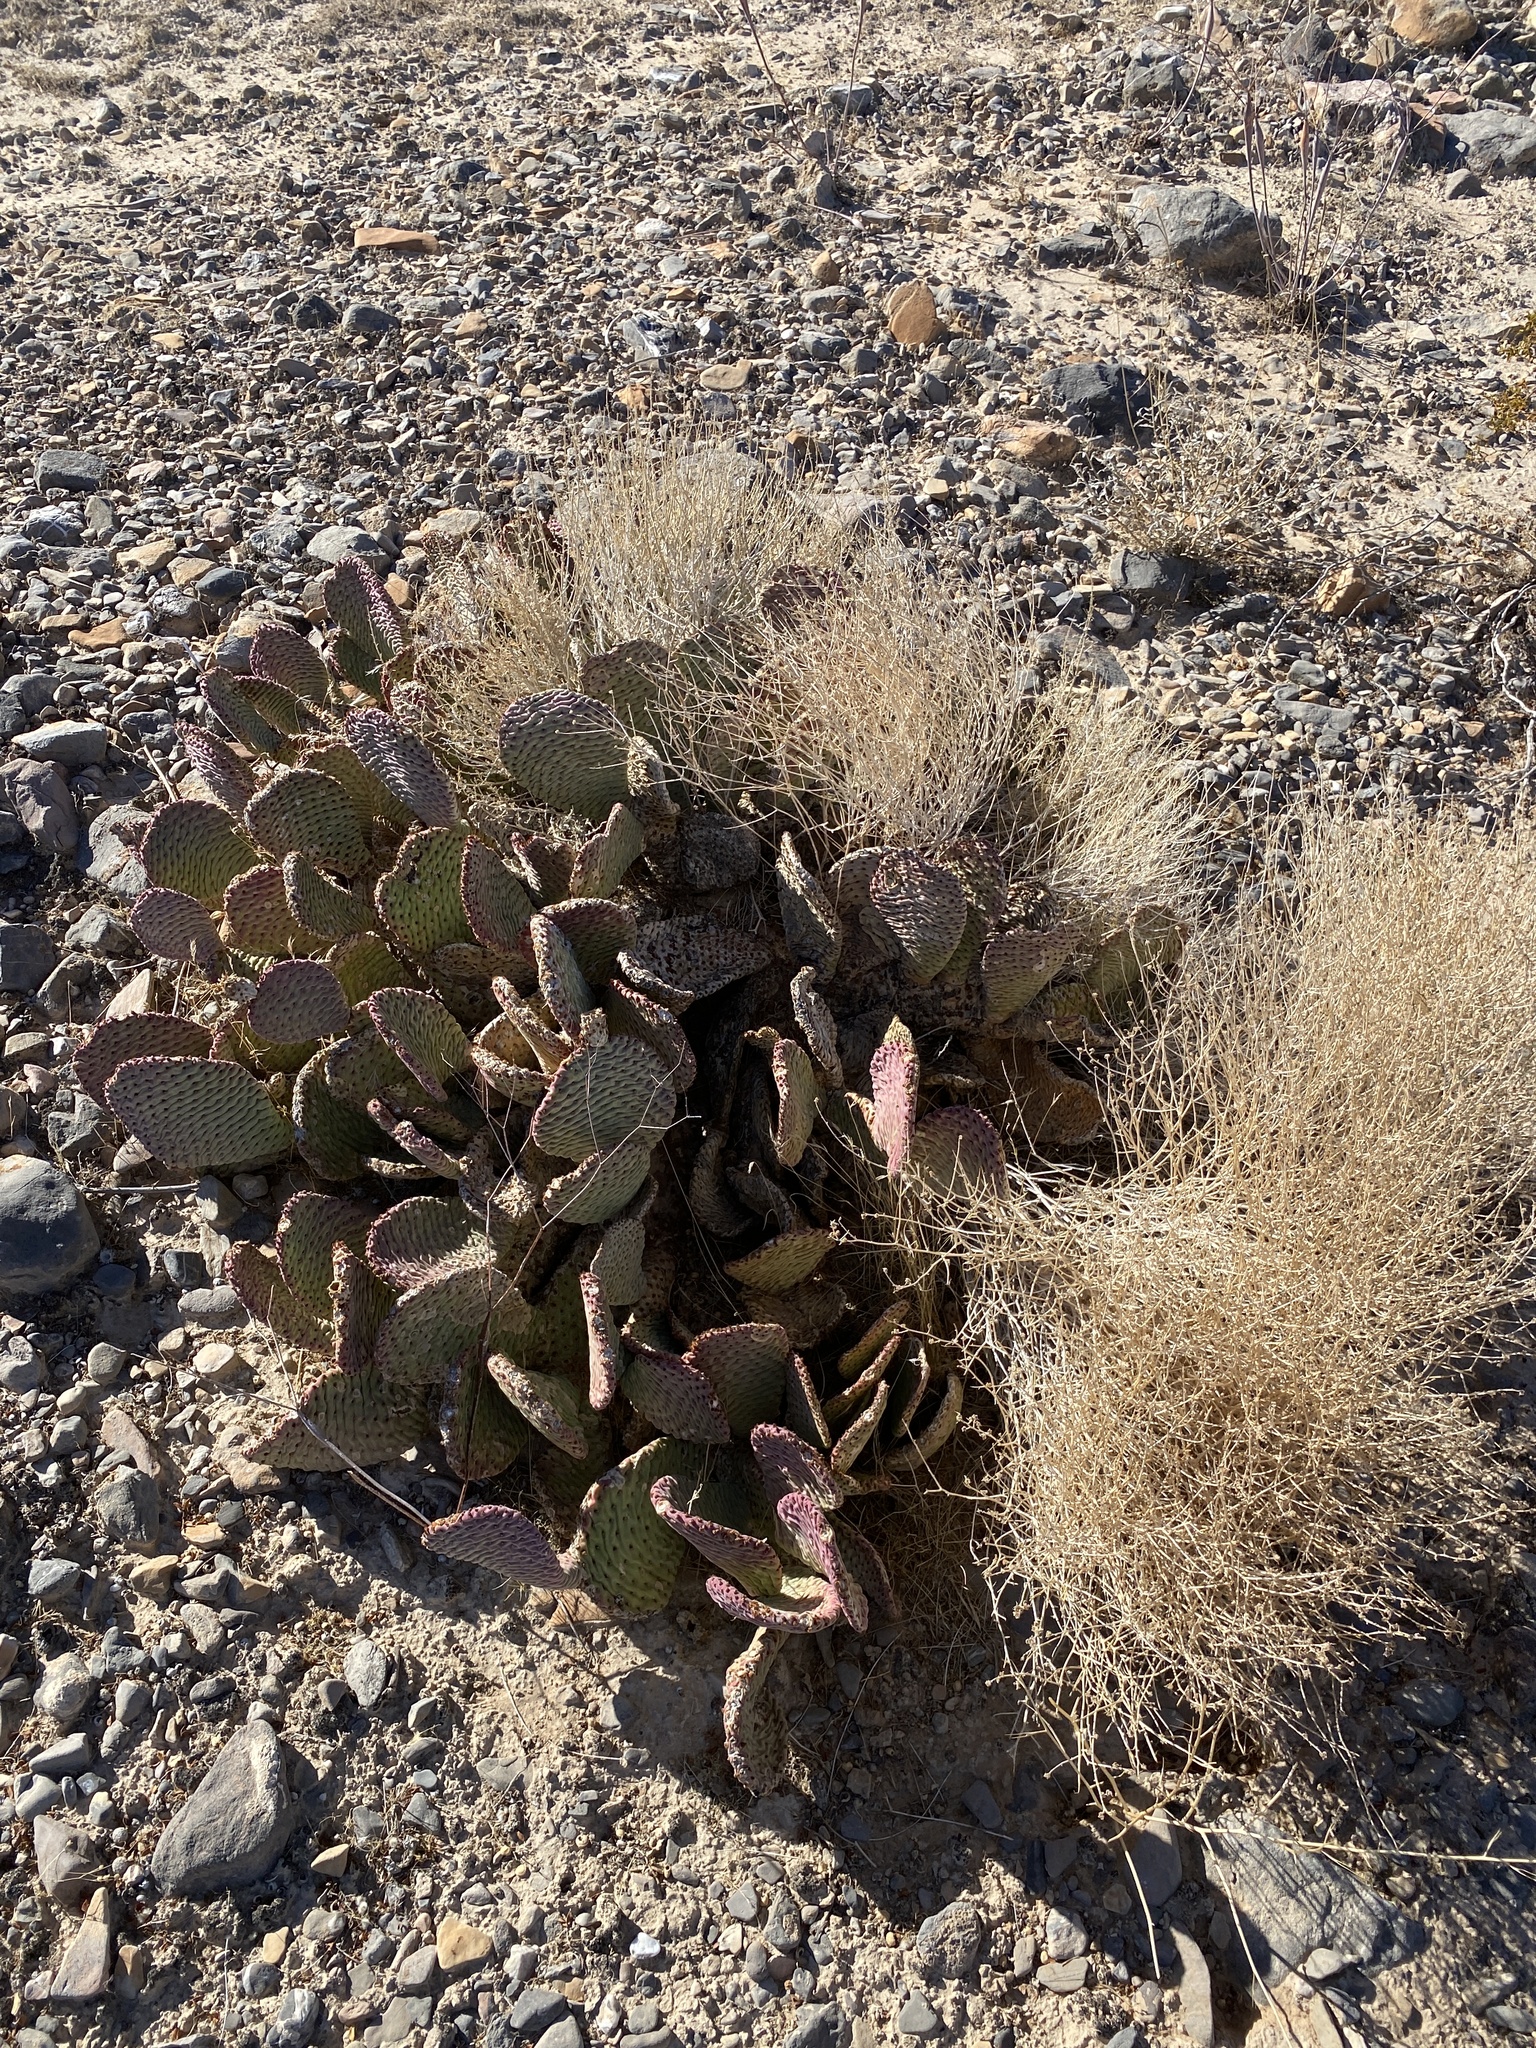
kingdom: Plantae
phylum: Tracheophyta
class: Magnoliopsida
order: Caryophyllales
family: Cactaceae
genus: Opuntia
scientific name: Opuntia basilaris
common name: Beavertail prickly-pear
